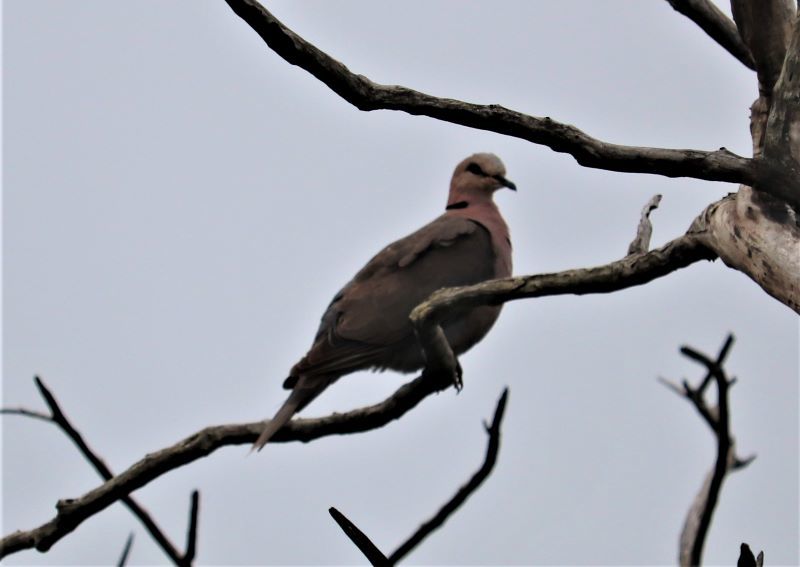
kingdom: Animalia
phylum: Chordata
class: Aves
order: Columbiformes
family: Columbidae
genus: Streptopelia
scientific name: Streptopelia semitorquata
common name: Red-eyed dove
